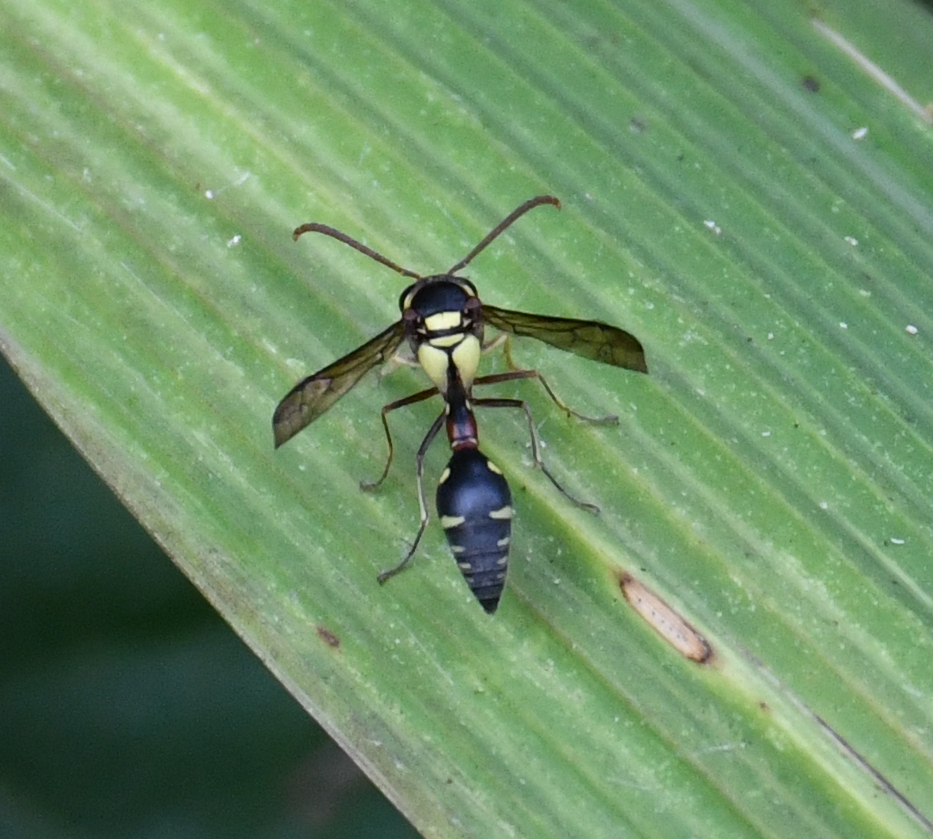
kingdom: Animalia
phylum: Arthropoda
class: Insecta
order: Hymenoptera
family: Eumenidae
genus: Afreumenes
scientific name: Afreumenes aethiopicus
